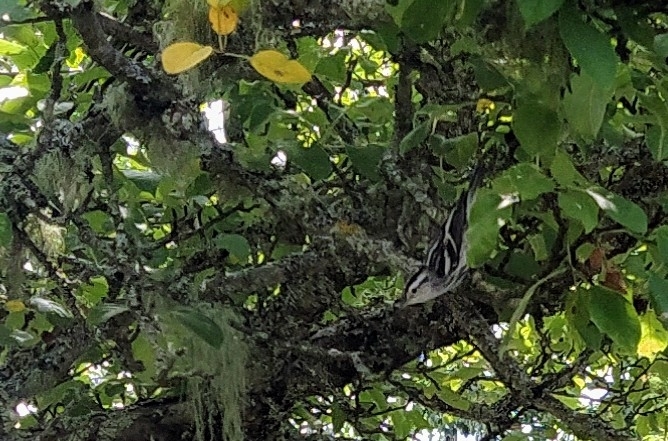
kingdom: Animalia
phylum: Chordata
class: Aves
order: Passeriformes
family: Parulidae
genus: Mniotilta
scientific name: Mniotilta varia
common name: Black-and-white warbler
